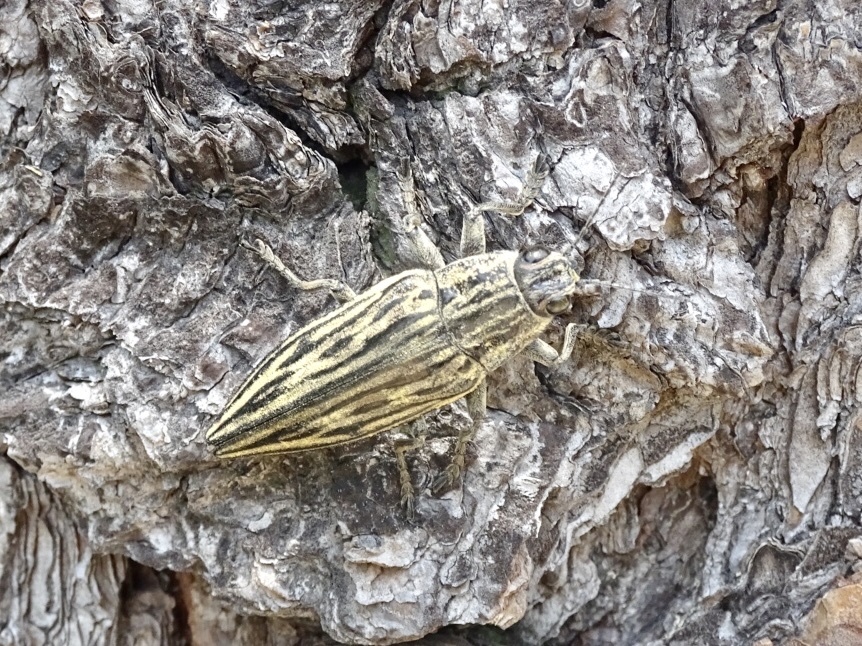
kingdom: Animalia
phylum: Arthropoda
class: Insecta
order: Coleoptera
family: Buprestidae
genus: Chalcophora
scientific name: Chalcophora japonica
